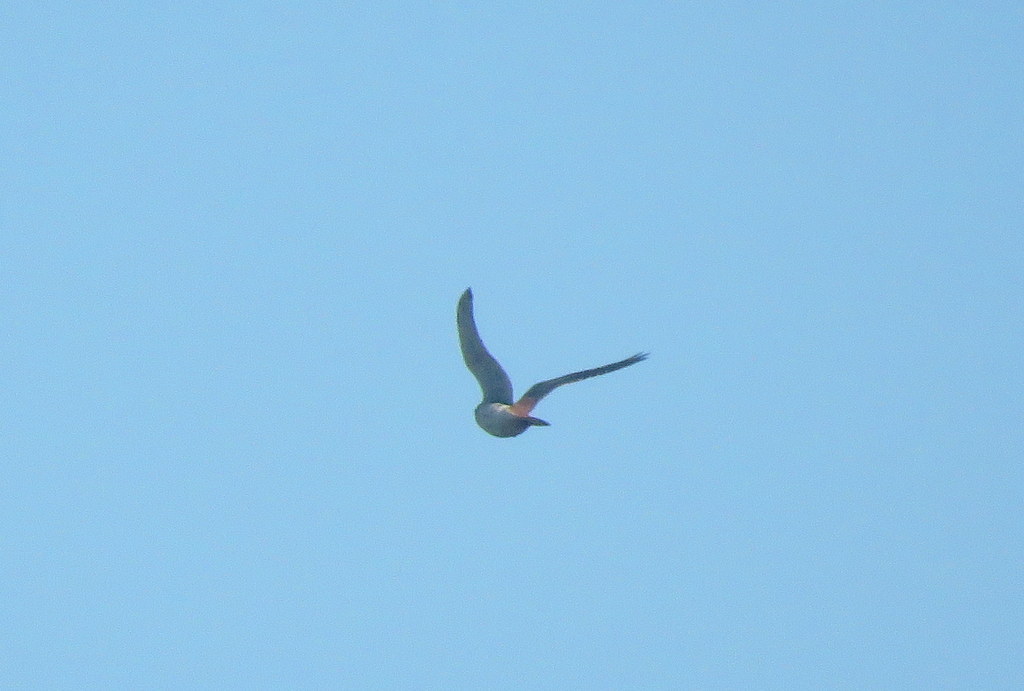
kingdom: Animalia
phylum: Chordata
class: Aves
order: Falconiformes
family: Falconidae
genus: Falco
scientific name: Falco sparverius
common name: American kestrel
